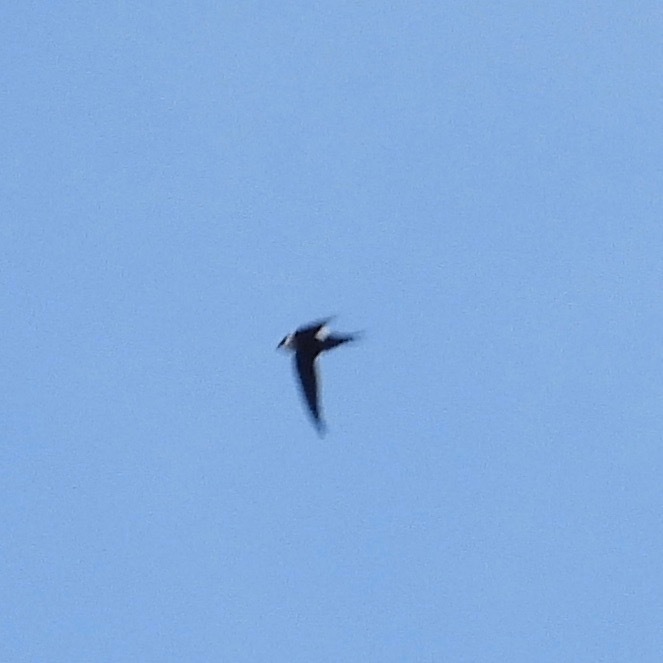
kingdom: Animalia
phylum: Chordata
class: Aves
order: Apodiformes
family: Apodidae
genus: Panyptila
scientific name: Panyptila cayennensis
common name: Lesser swallow-tailed swift
